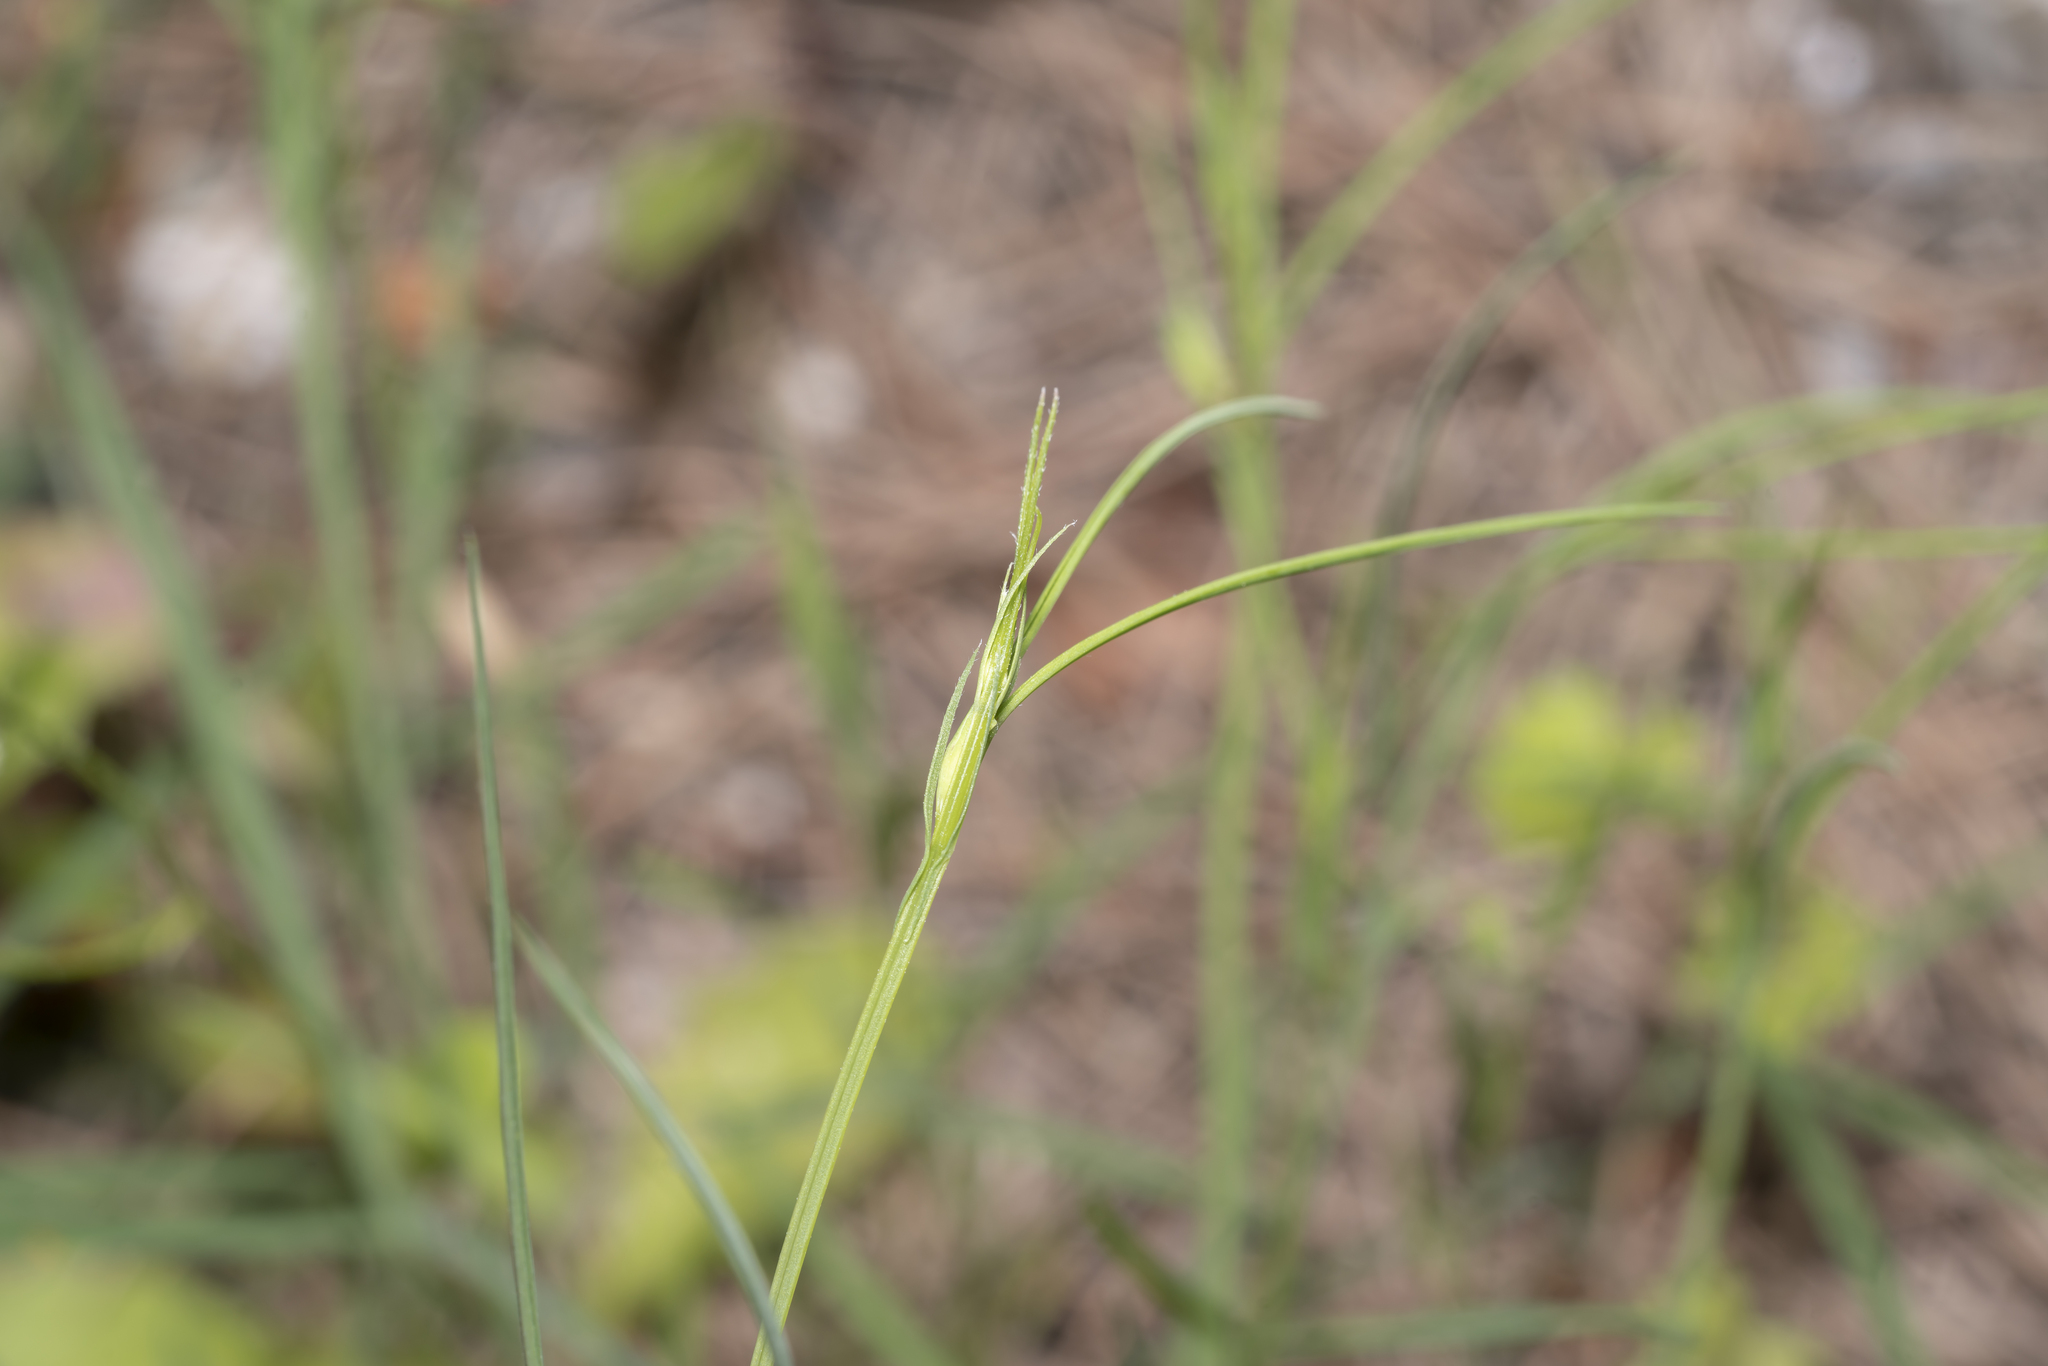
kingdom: Plantae
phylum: Tracheophyta
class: Magnoliopsida
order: Fabales
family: Fabaceae
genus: Lathyrus
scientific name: Lathyrus sphaericus
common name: Grass pea
